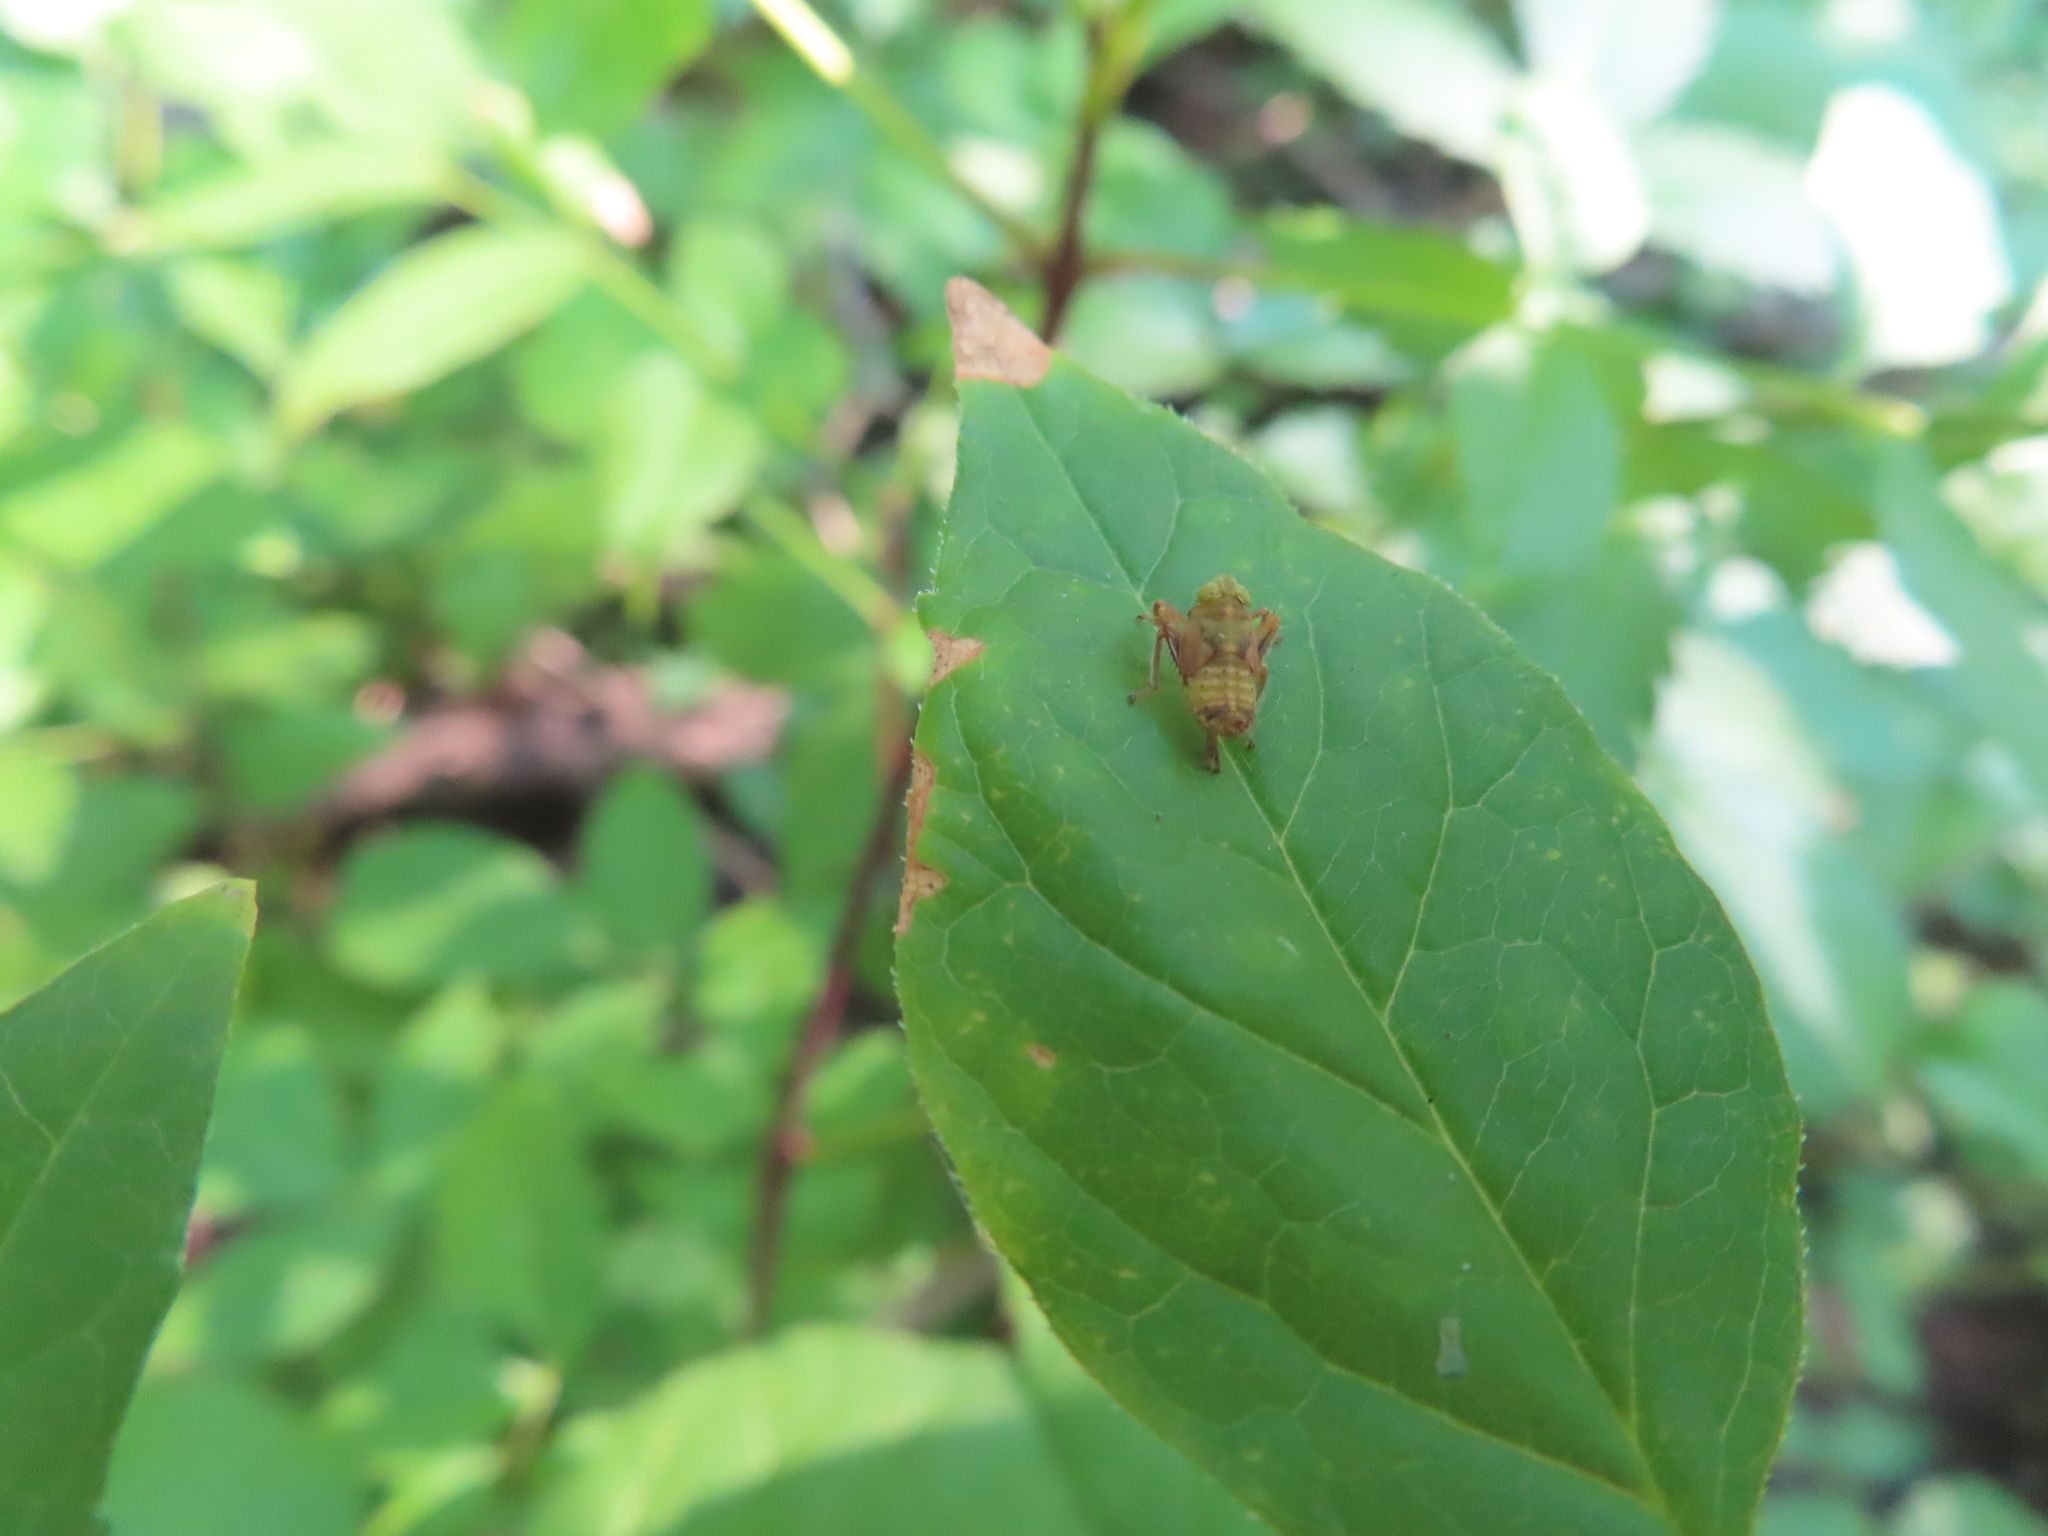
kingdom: Animalia
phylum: Arthropoda
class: Insecta
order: Hemiptera
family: Cicadellidae
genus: Jikradia
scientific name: Jikradia olitoria
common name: Coppery leafhopper
